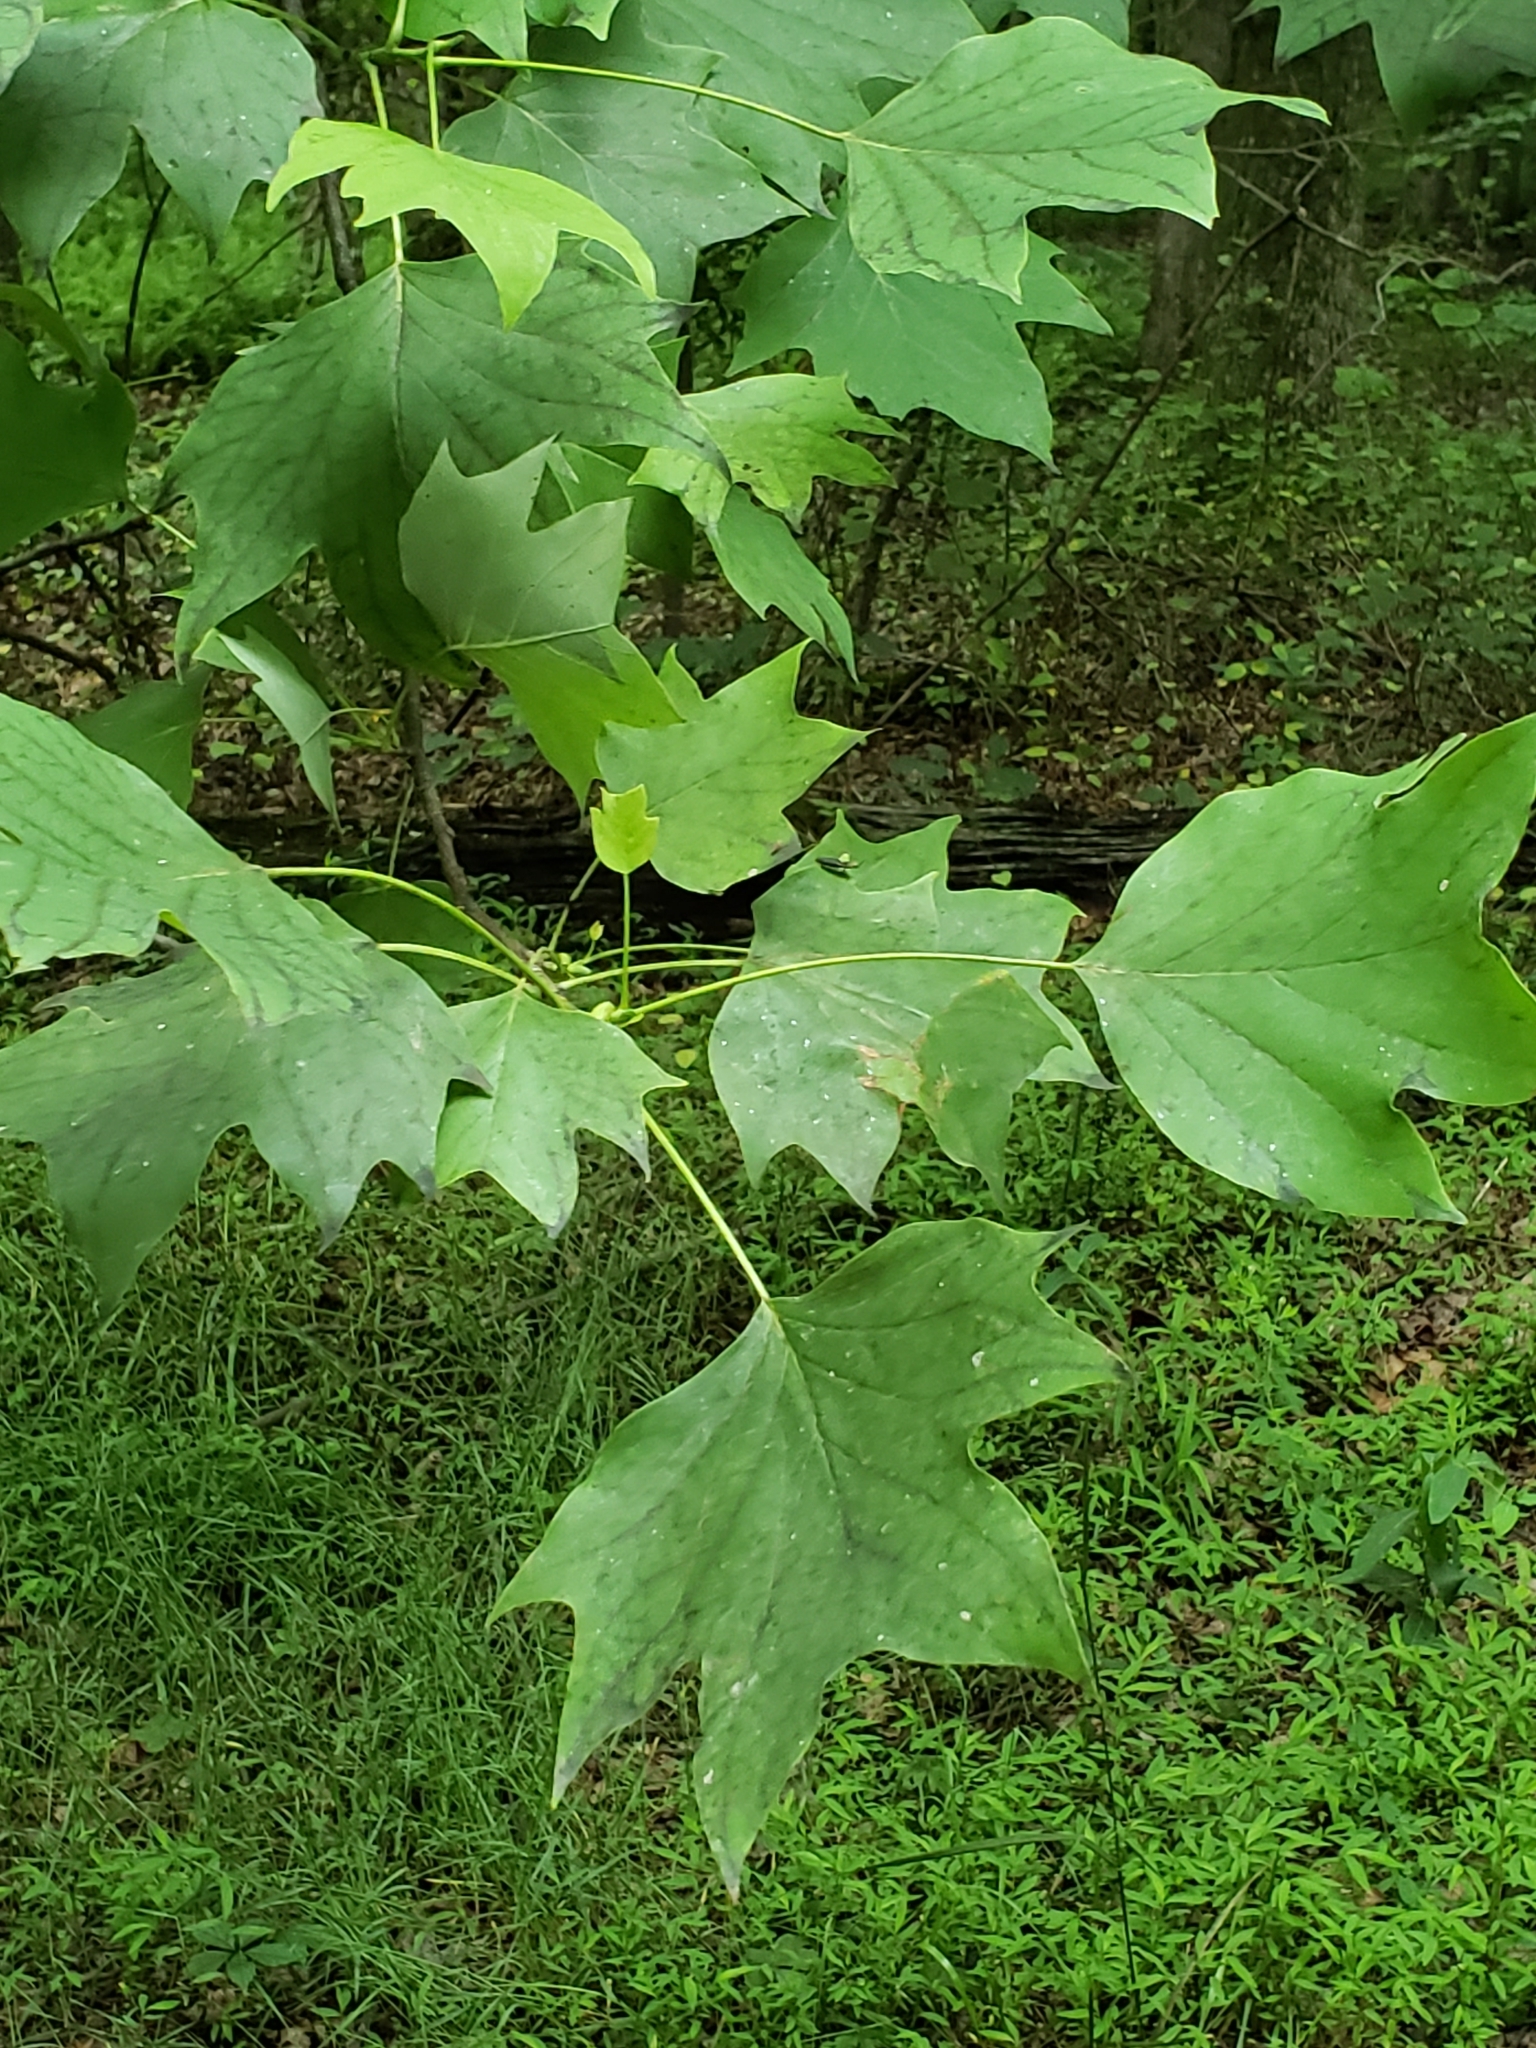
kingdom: Plantae
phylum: Tracheophyta
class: Magnoliopsida
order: Magnoliales
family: Magnoliaceae
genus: Liriodendron
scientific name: Liriodendron tulipifera
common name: Tulip tree
